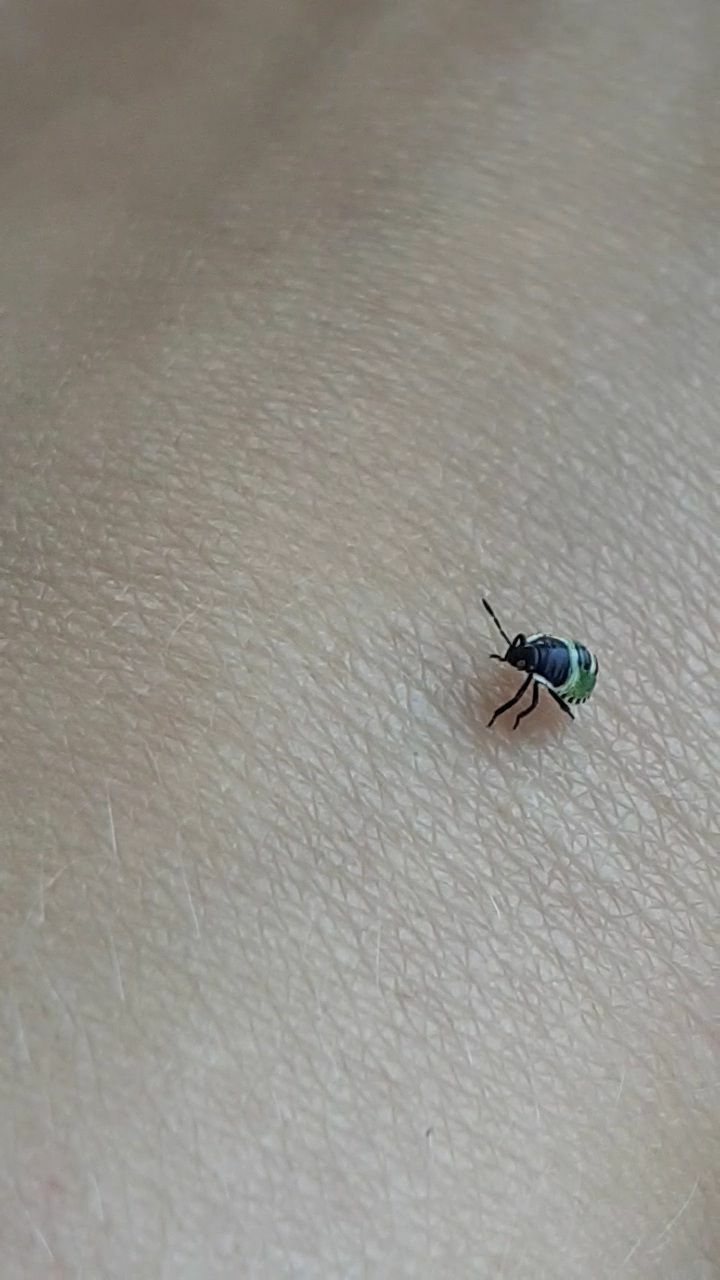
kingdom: Animalia
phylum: Arthropoda
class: Insecta
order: Hemiptera
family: Pentatomidae
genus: Palomena
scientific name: Palomena prasina
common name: Green shieldbug
